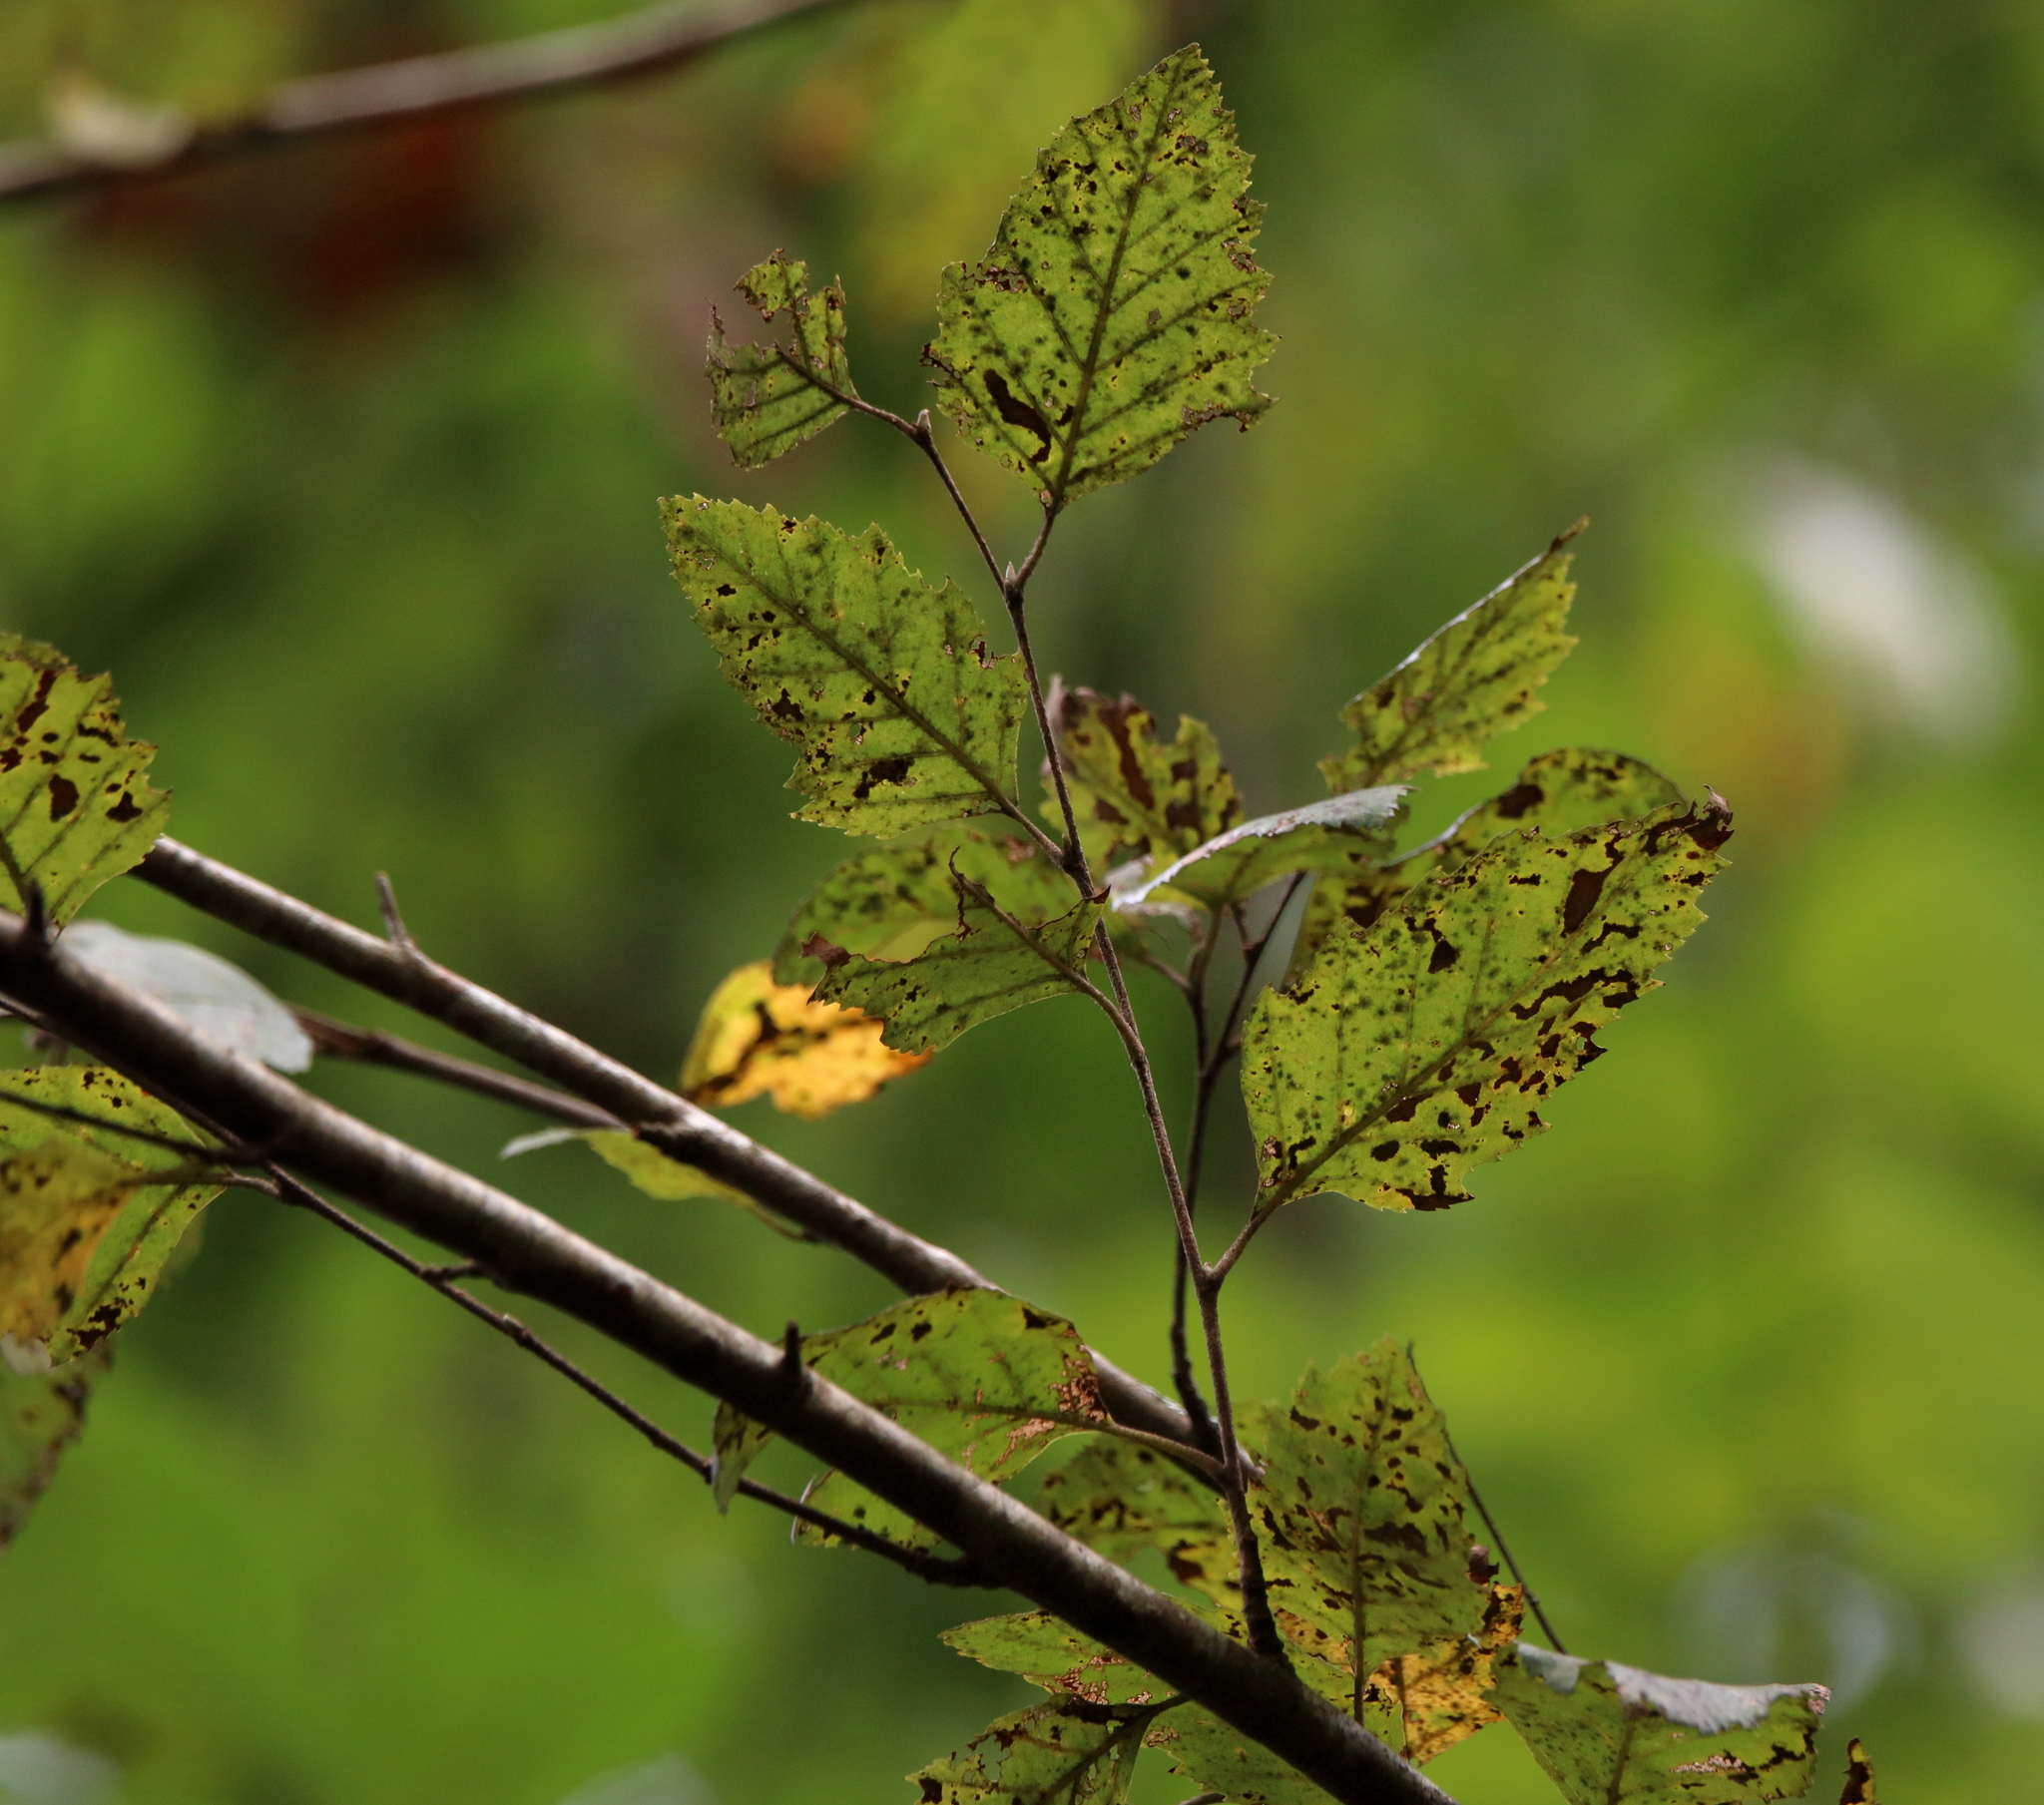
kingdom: Plantae
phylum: Tracheophyta
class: Magnoliopsida
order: Fagales
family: Betulaceae
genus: Betula
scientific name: Betula nigra
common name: Black birch
